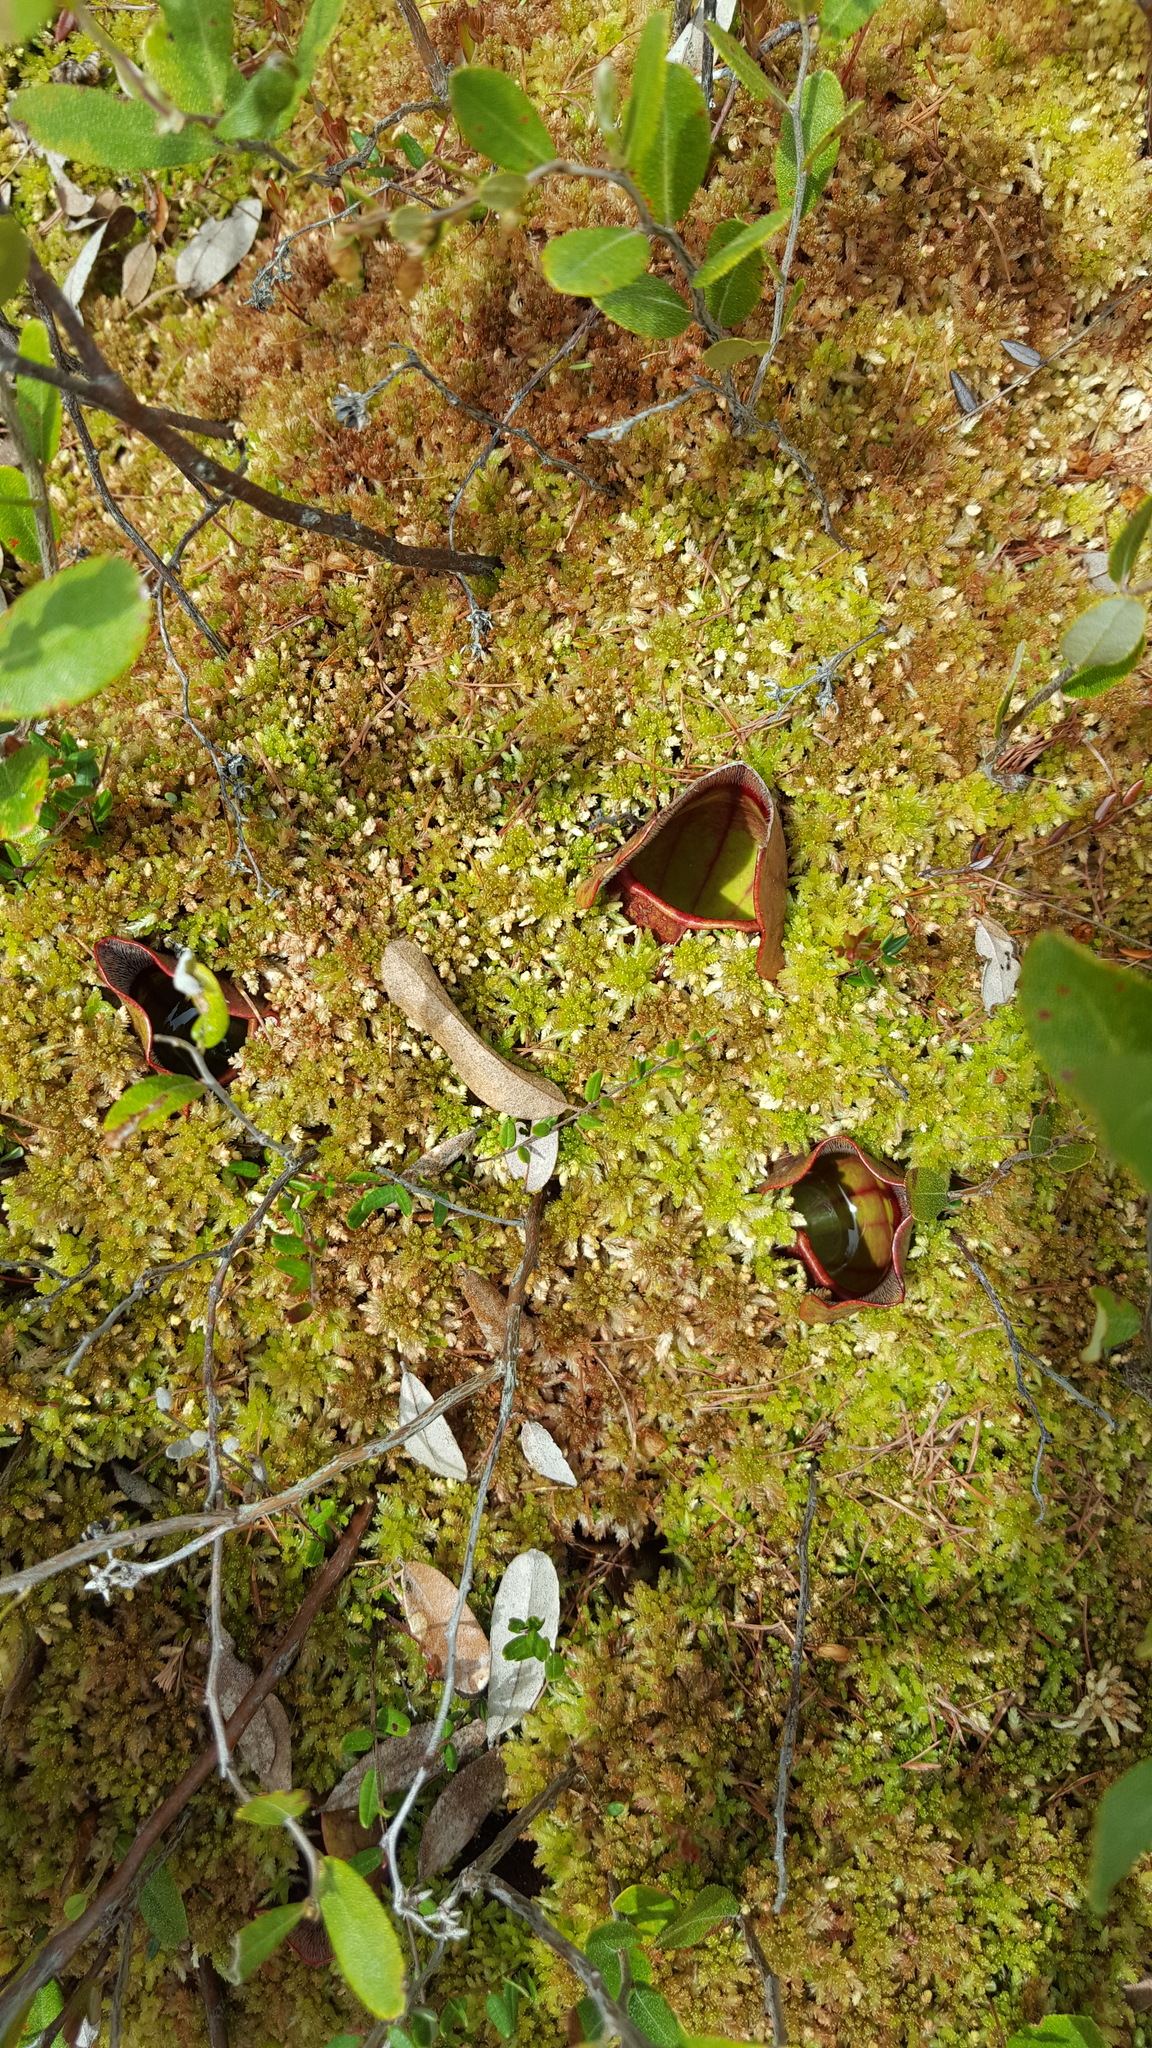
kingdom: Plantae
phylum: Tracheophyta
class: Magnoliopsida
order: Ericales
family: Sarraceniaceae
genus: Sarracenia
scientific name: Sarracenia purpurea
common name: Pitcherplant
